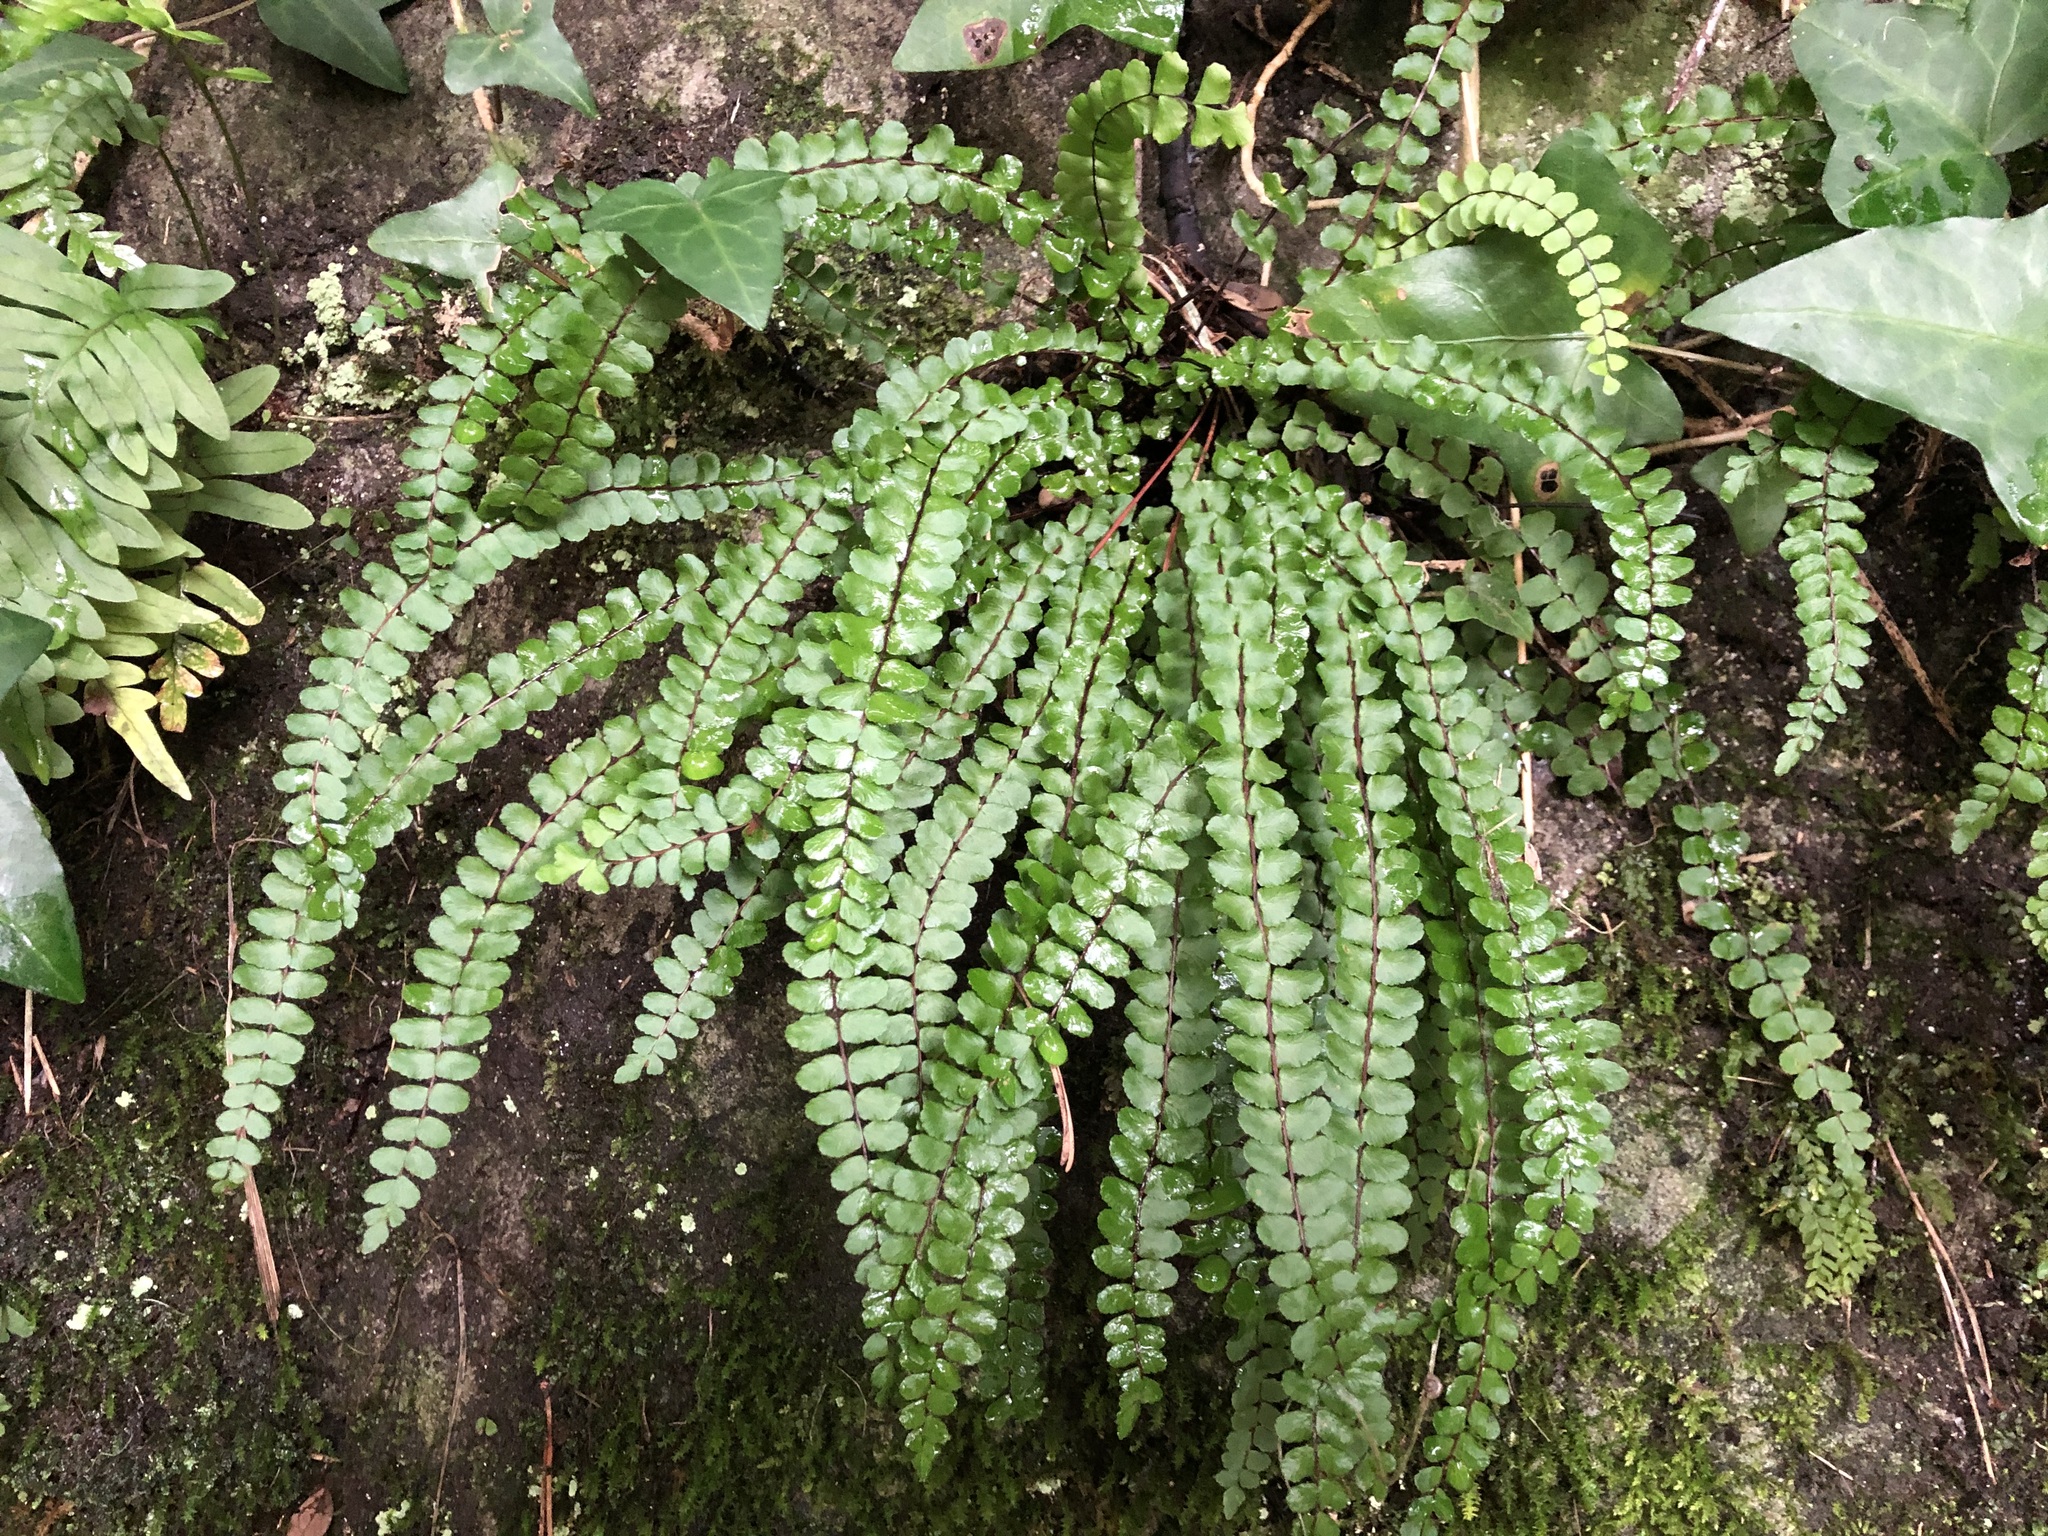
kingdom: Plantae
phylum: Tracheophyta
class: Polypodiopsida
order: Polypodiales
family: Aspleniaceae
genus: Asplenium
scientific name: Asplenium trichomanes
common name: Maidenhair spleenwort
